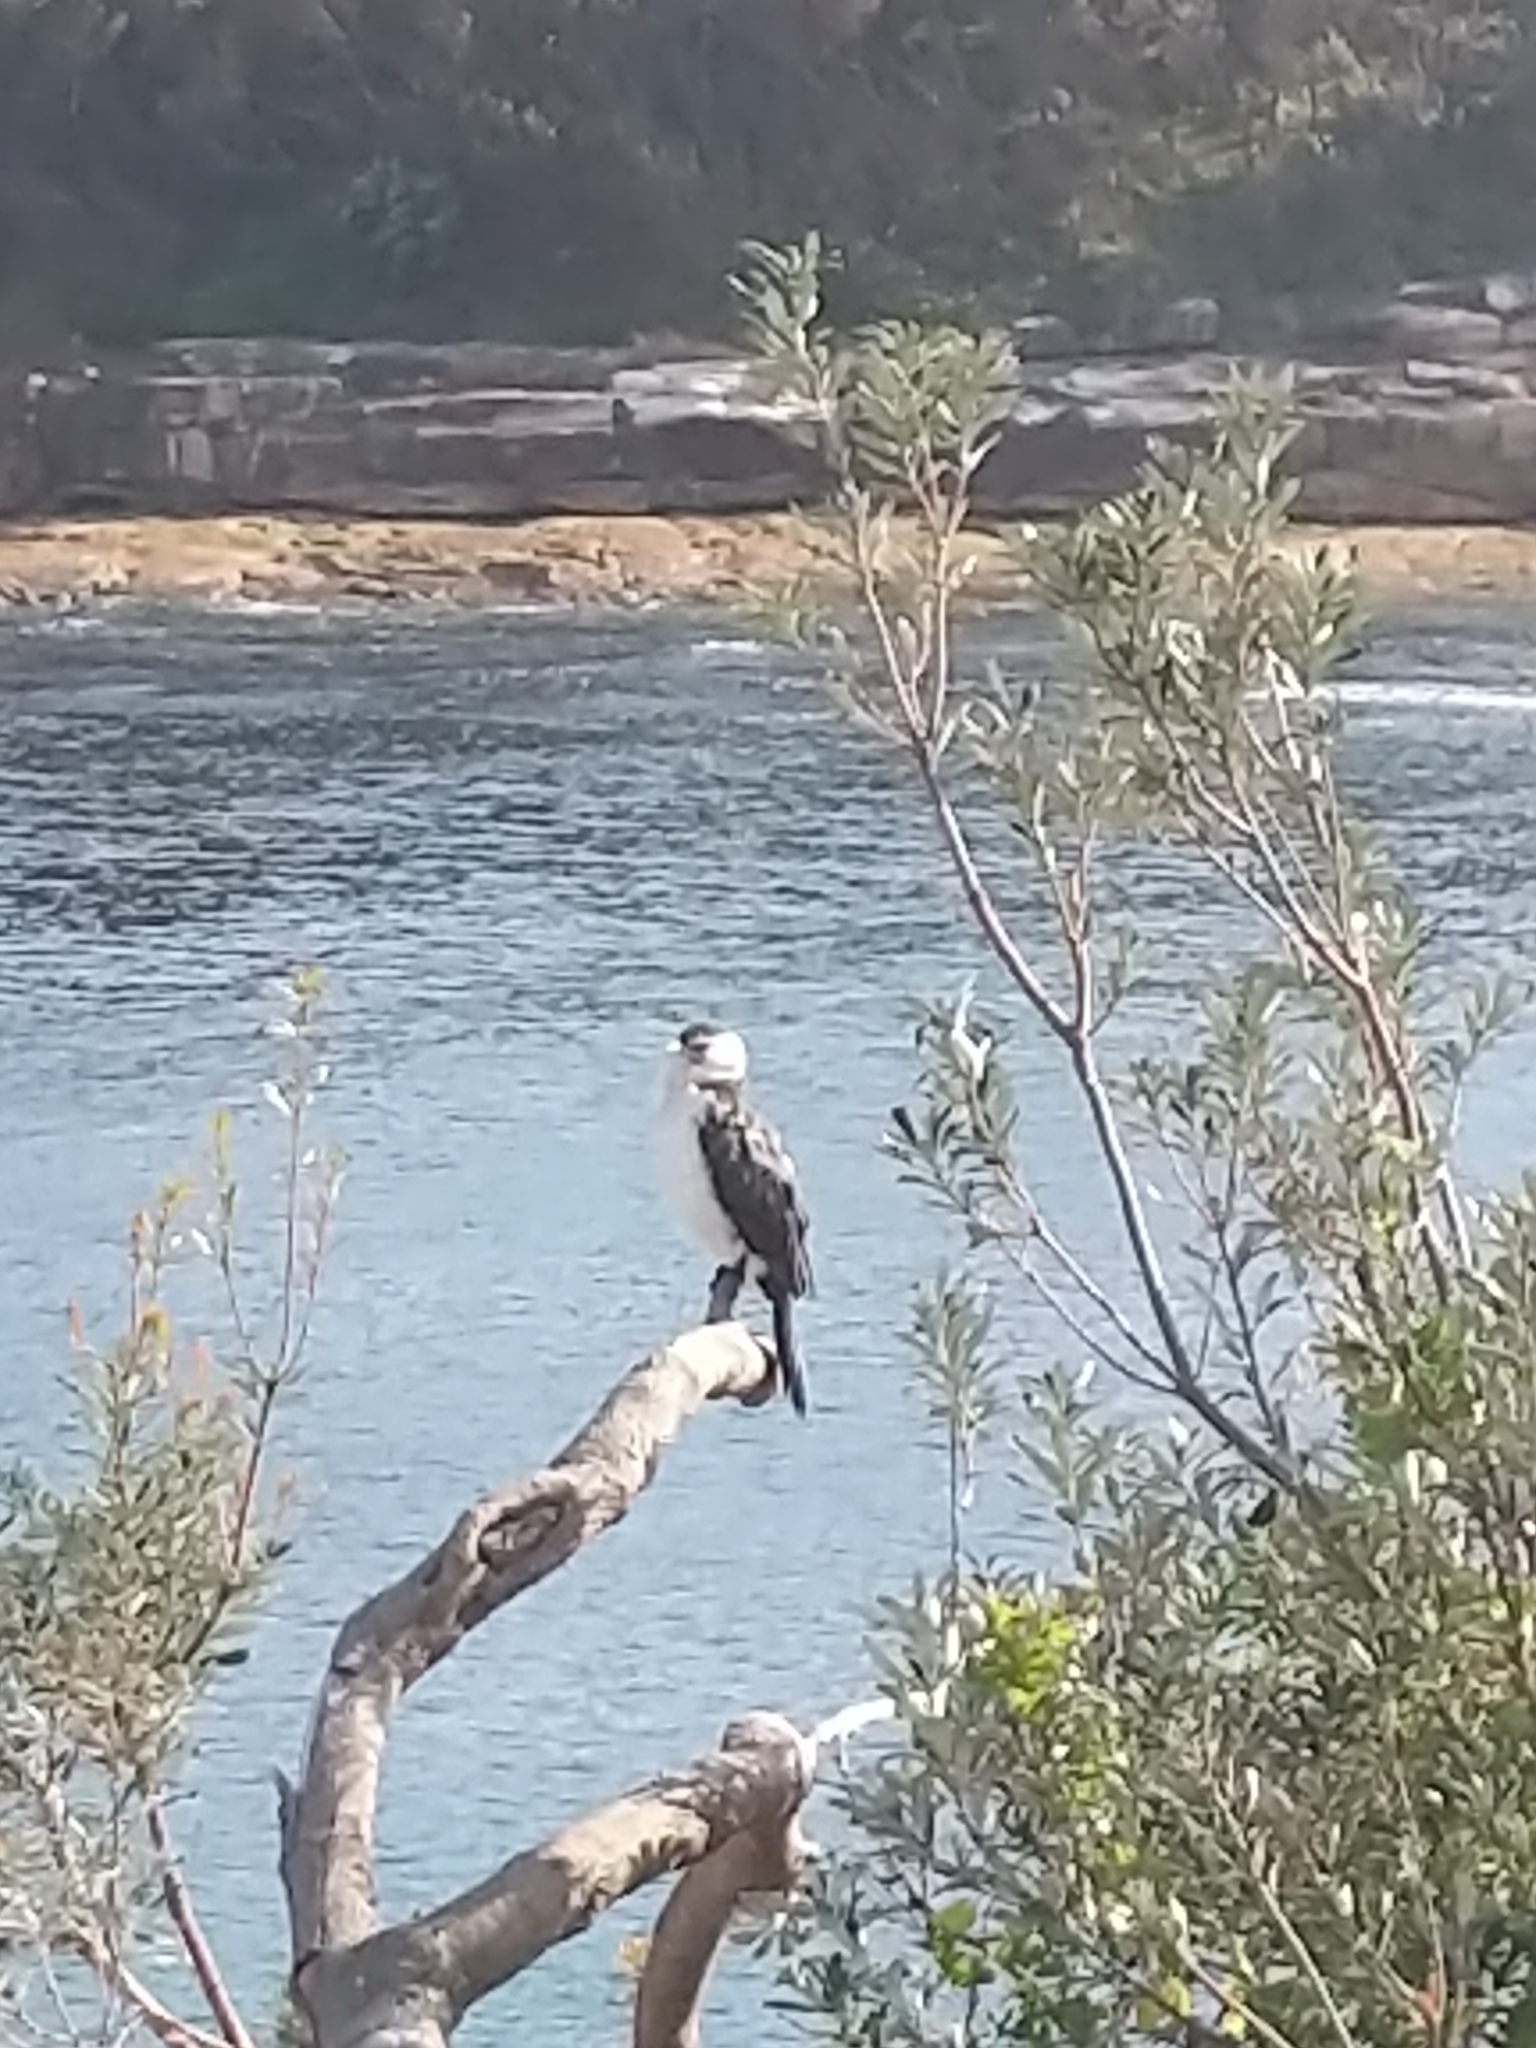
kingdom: Animalia
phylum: Chordata
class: Aves
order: Suliformes
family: Phalacrocoracidae
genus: Microcarbo
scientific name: Microcarbo melanoleucos
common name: Little pied cormorant
